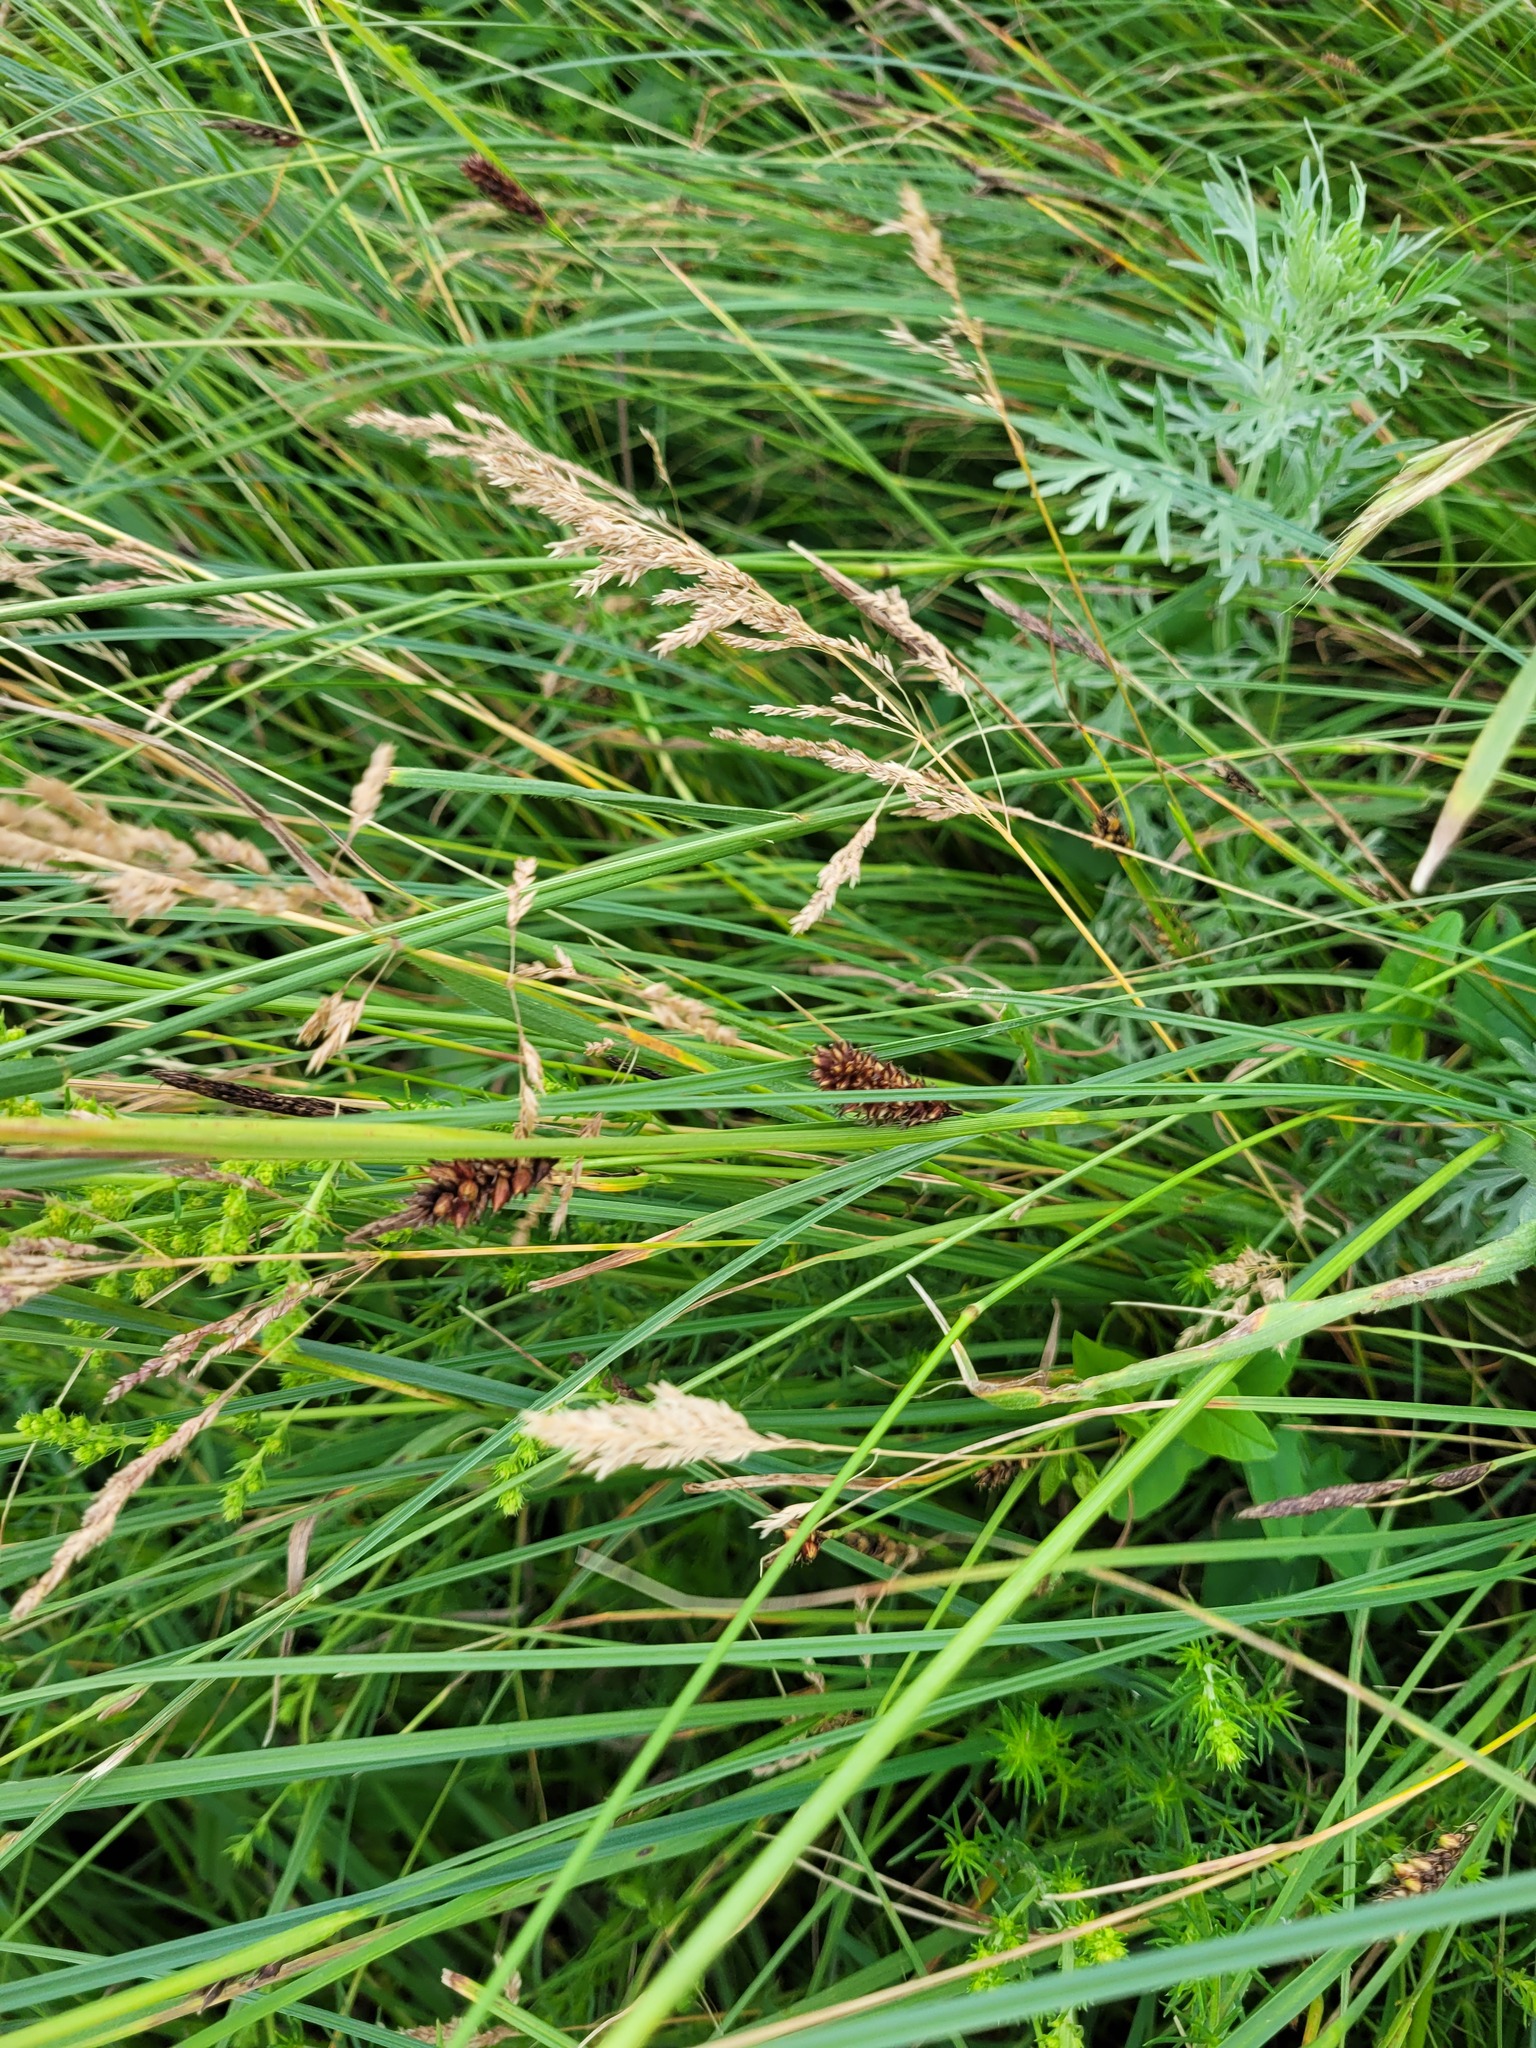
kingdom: Plantae
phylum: Tracheophyta
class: Liliopsida
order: Poales
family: Cyperaceae
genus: Carex
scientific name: Carex melanostachya
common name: Black-spiked sedge
